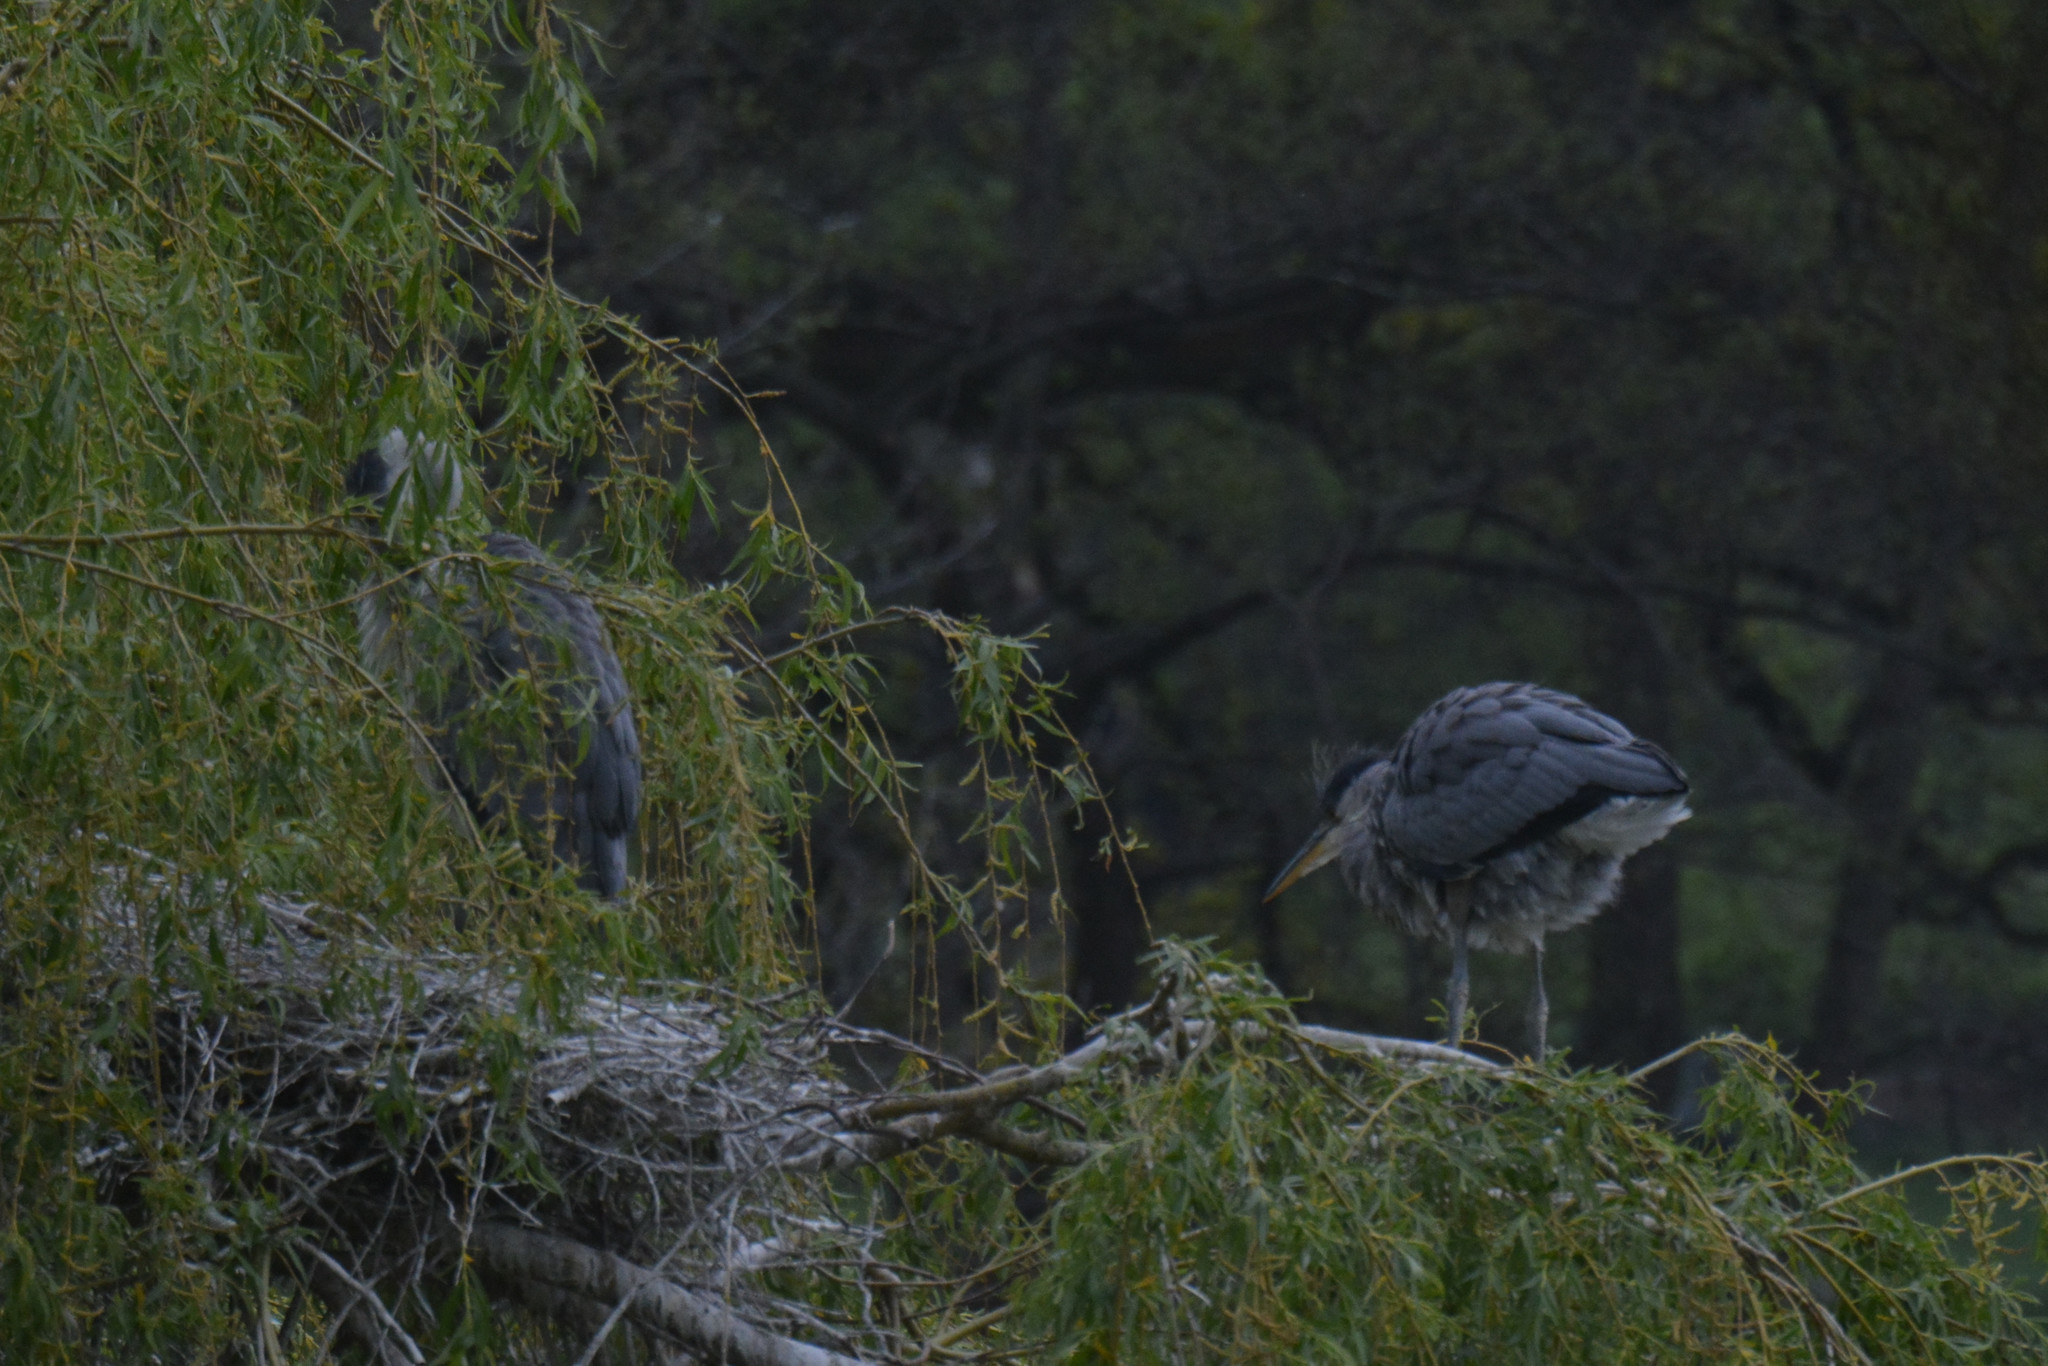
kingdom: Animalia
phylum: Chordata
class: Aves
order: Pelecaniformes
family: Ardeidae
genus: Ardea
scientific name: Ardea cinerea
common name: Grey heron
